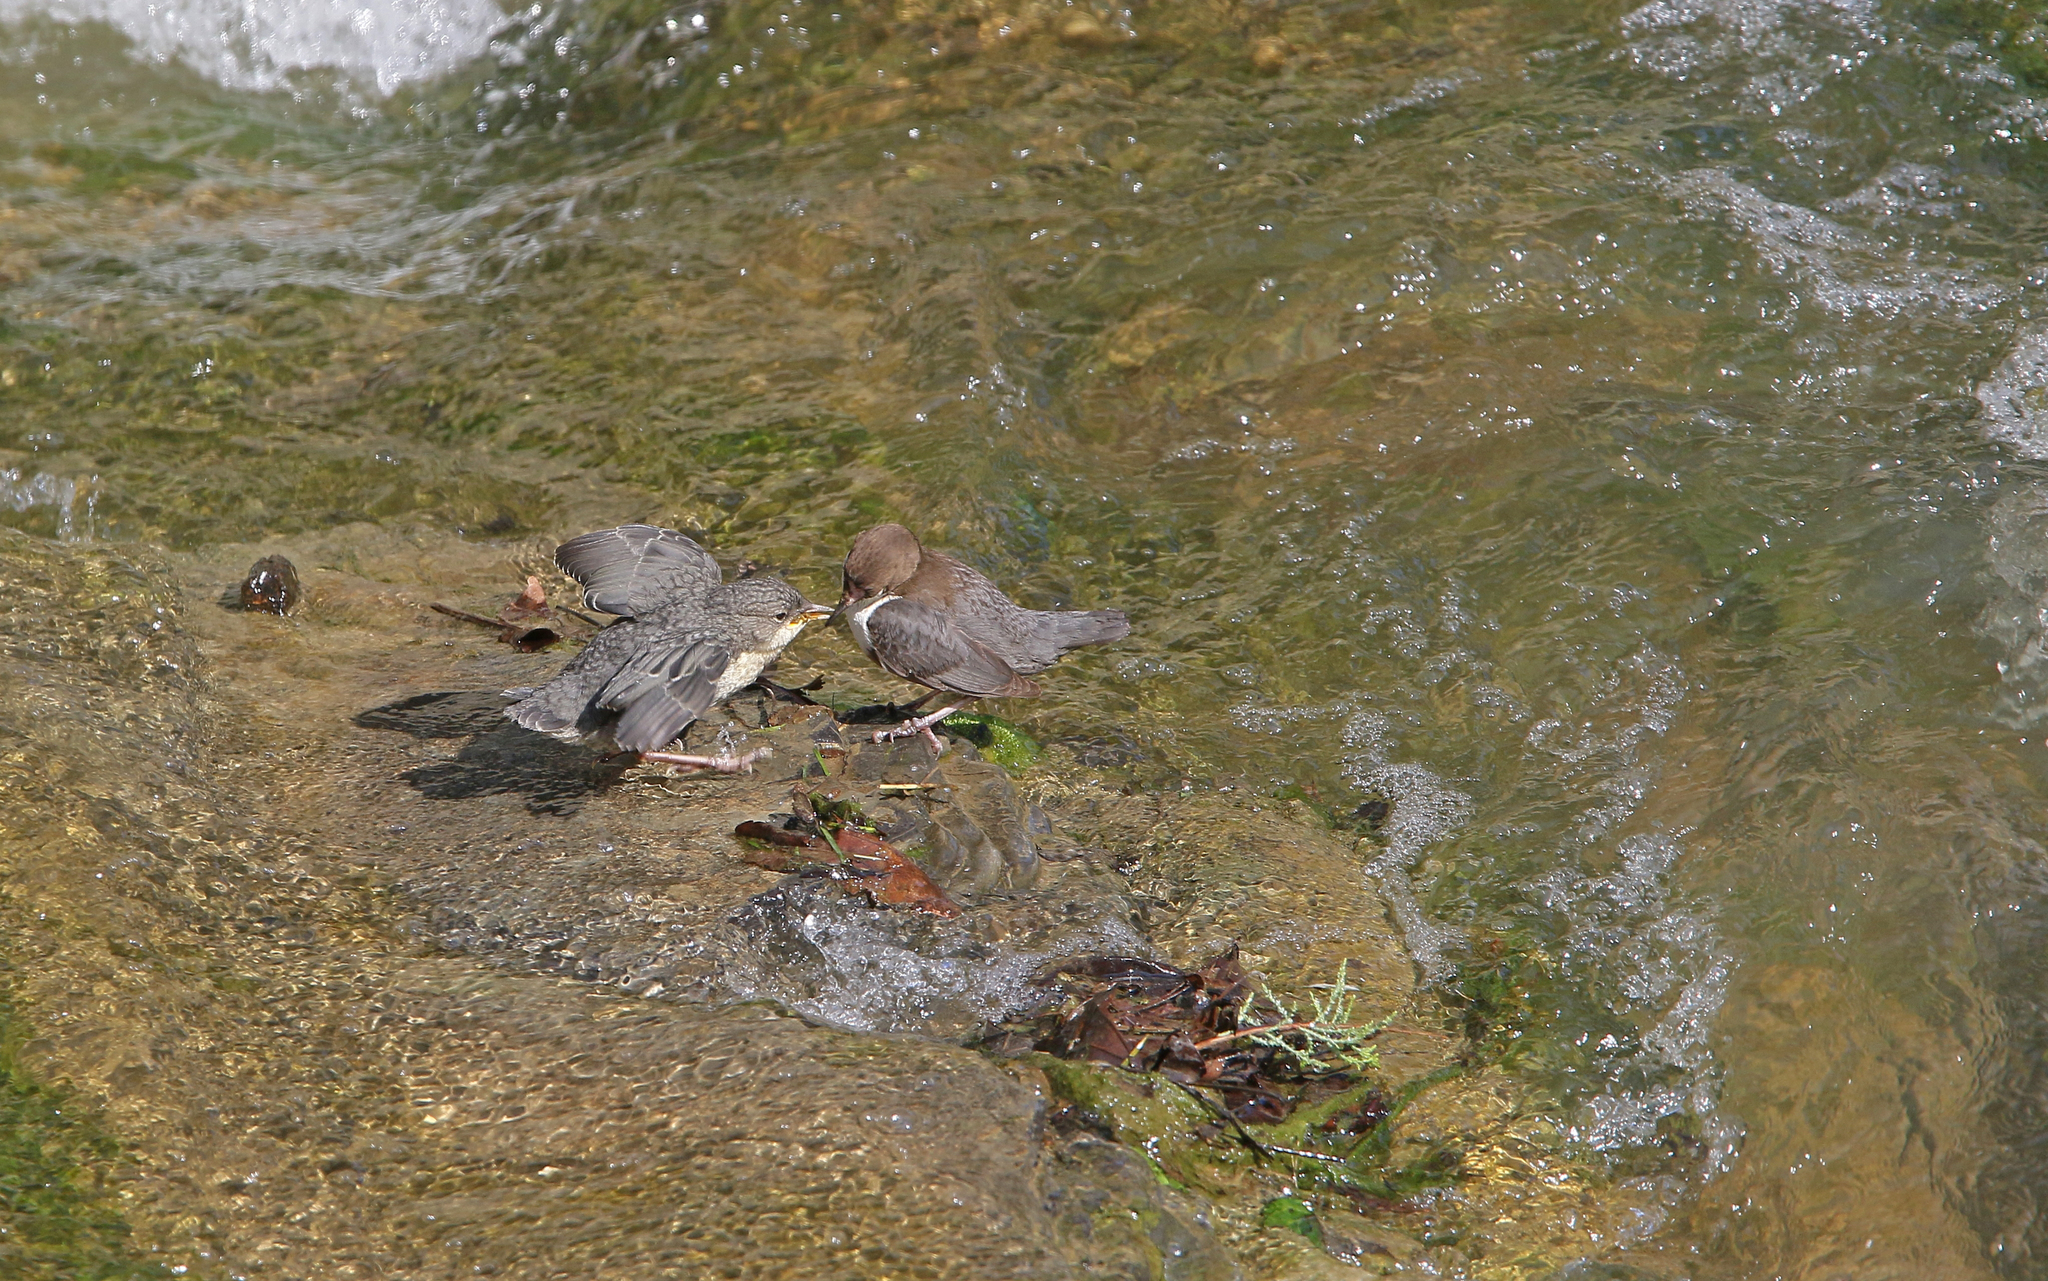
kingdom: Animalia
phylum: Chordata
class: Aves
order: Passeriformes
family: Cinclidae
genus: Cinclus
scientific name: Cinclus cinclus
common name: White-throated dipper
